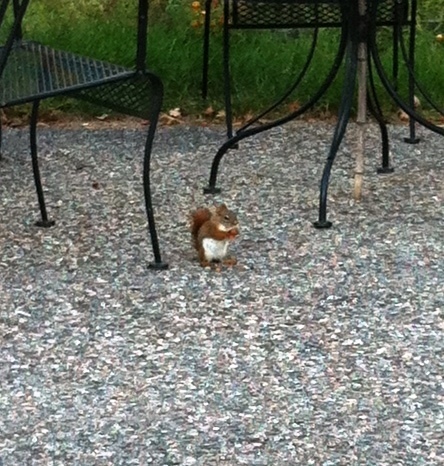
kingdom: Animalia
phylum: Chordata
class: Mammalia
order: Rodentia
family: Sciuridae
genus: Tamiasciurus
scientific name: Tamiasciurus hudsonicus
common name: Red squirrel
